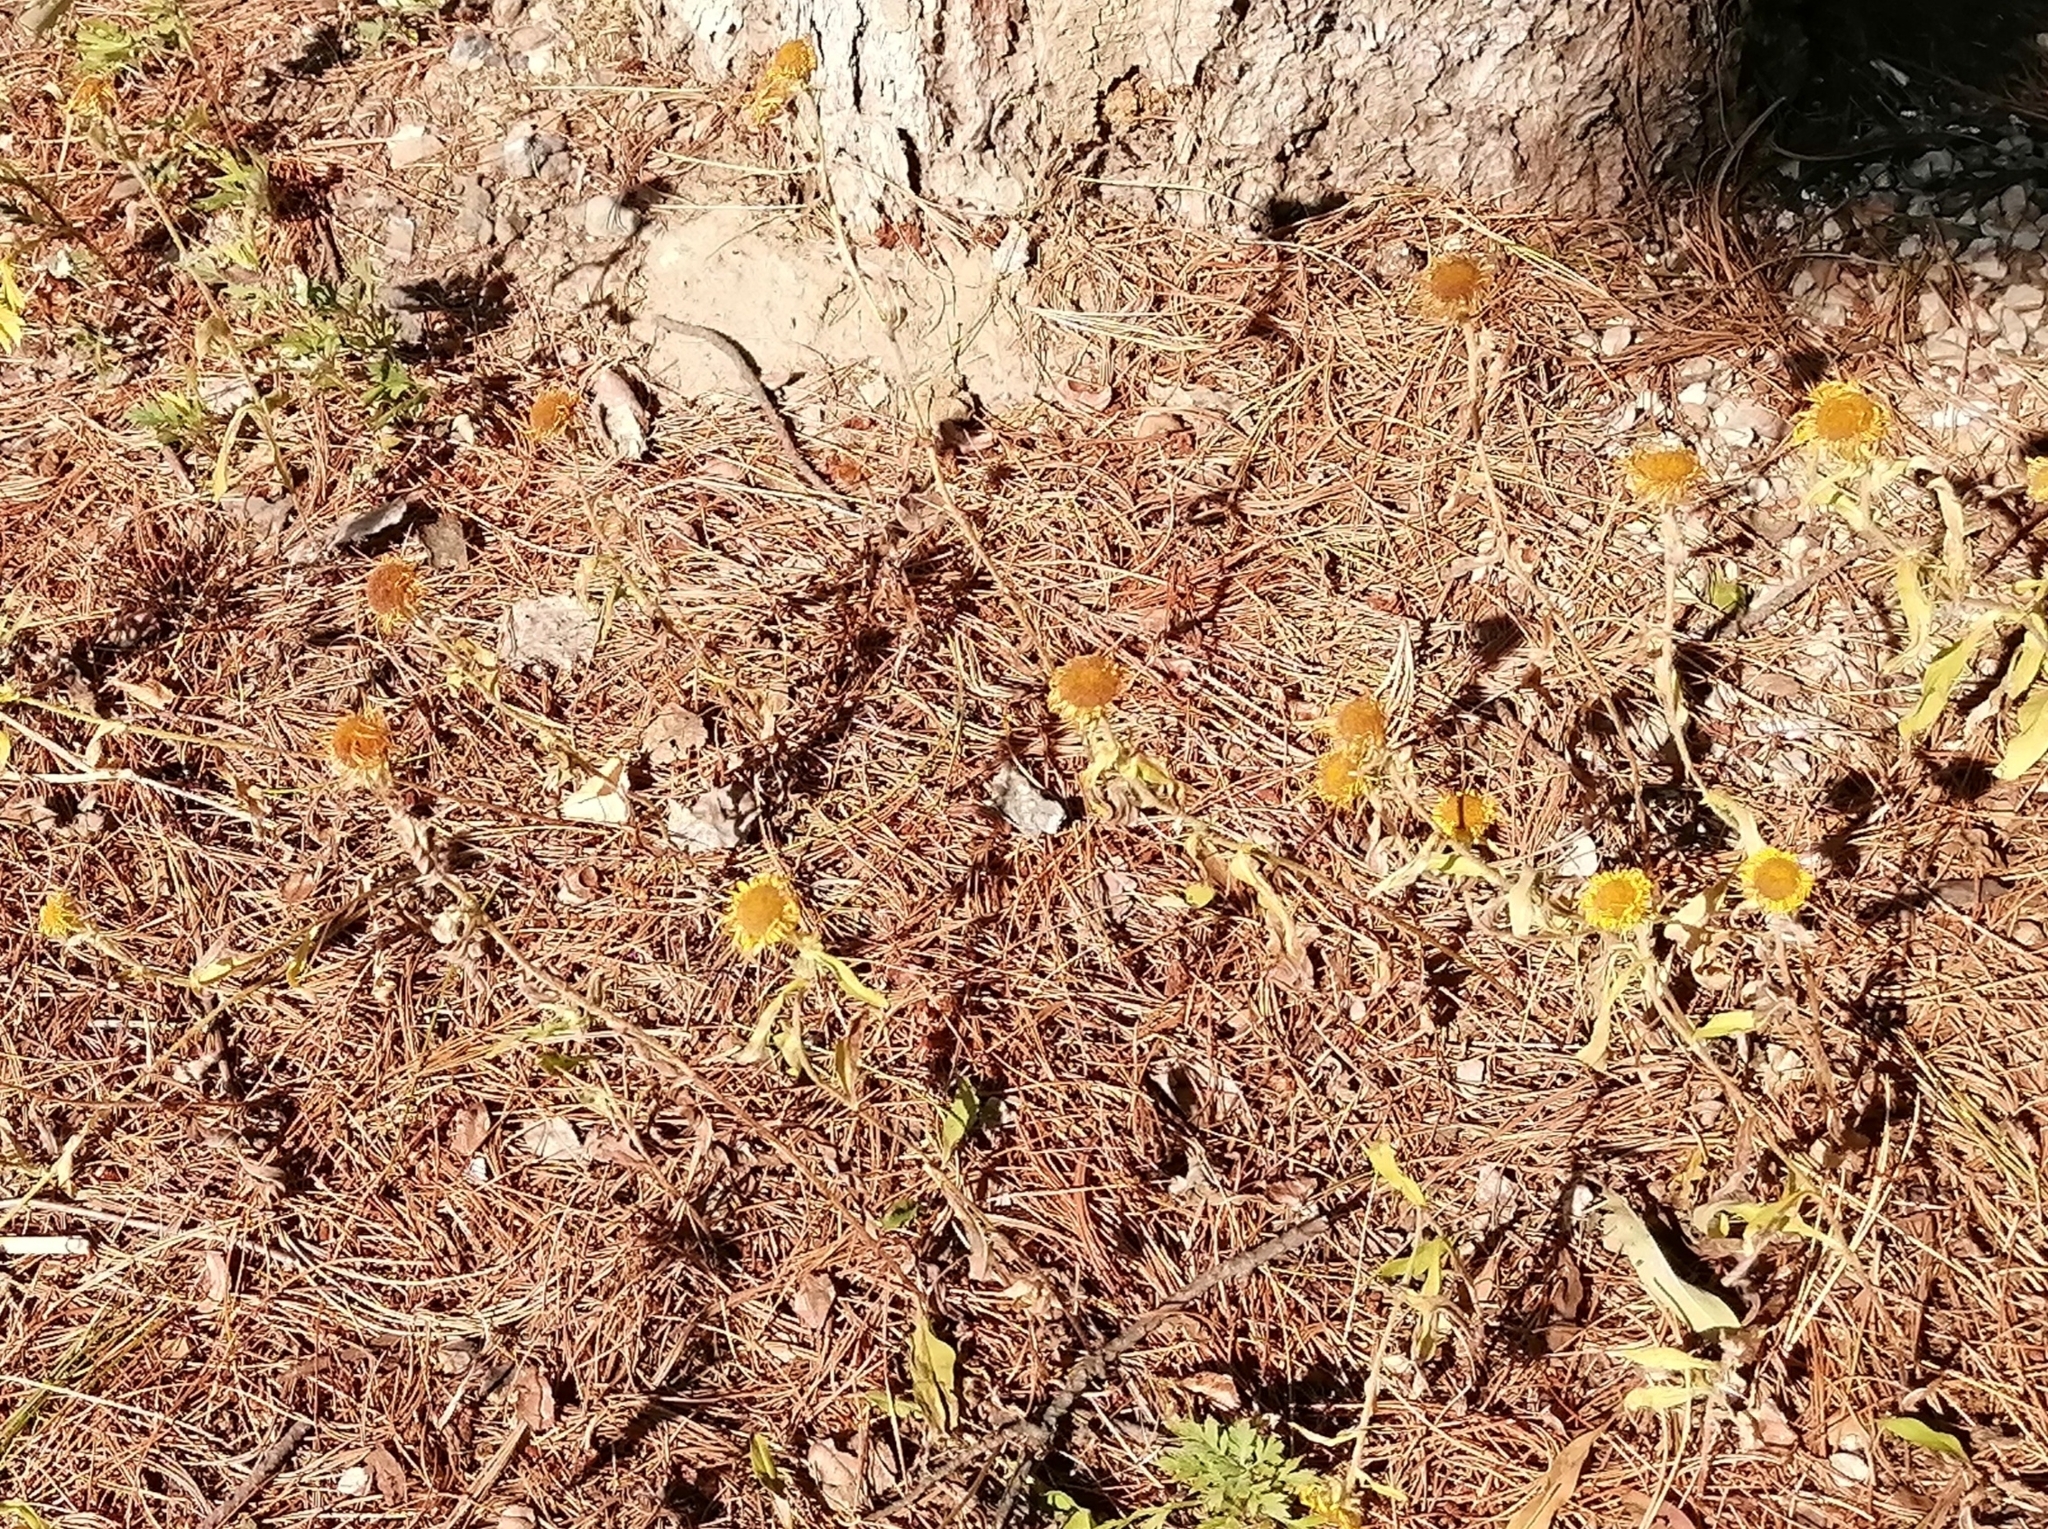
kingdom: Plantae
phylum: Tracheophyta
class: Magnoliopsida
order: Asterales
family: Asteraceae
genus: Pentanema
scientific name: Pentanema britannicum
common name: British elecampane
